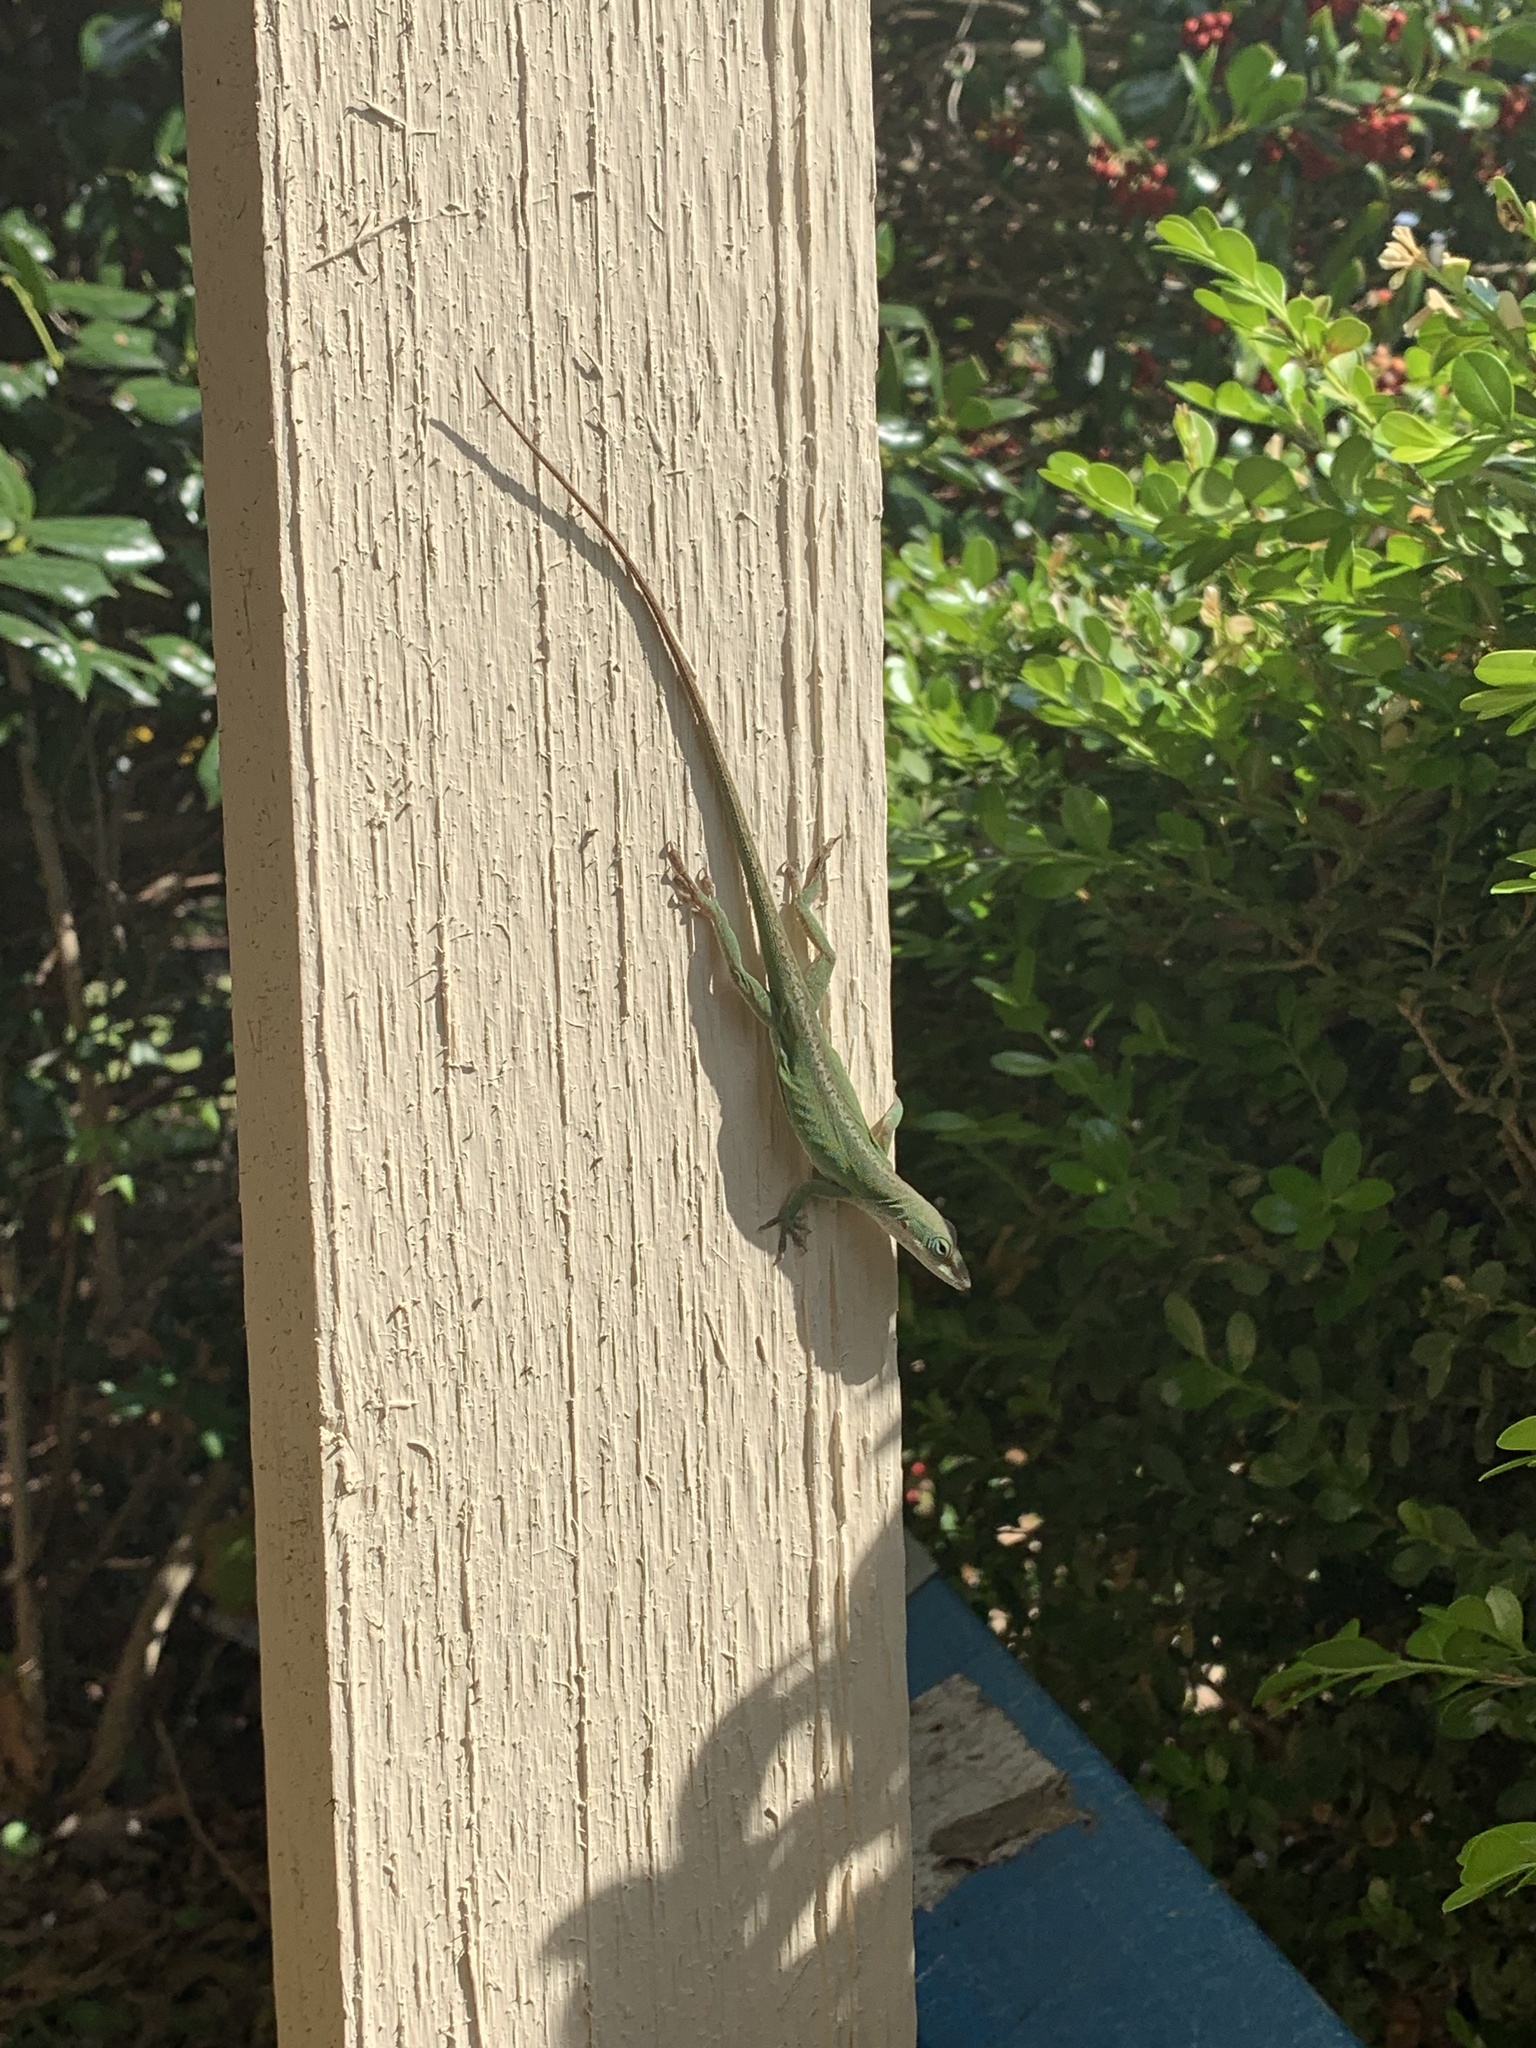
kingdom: Animalia
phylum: Chordata
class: Squamata
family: Dactyloidae
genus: Anolis
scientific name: Anolis carolinensis
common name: Green anole
